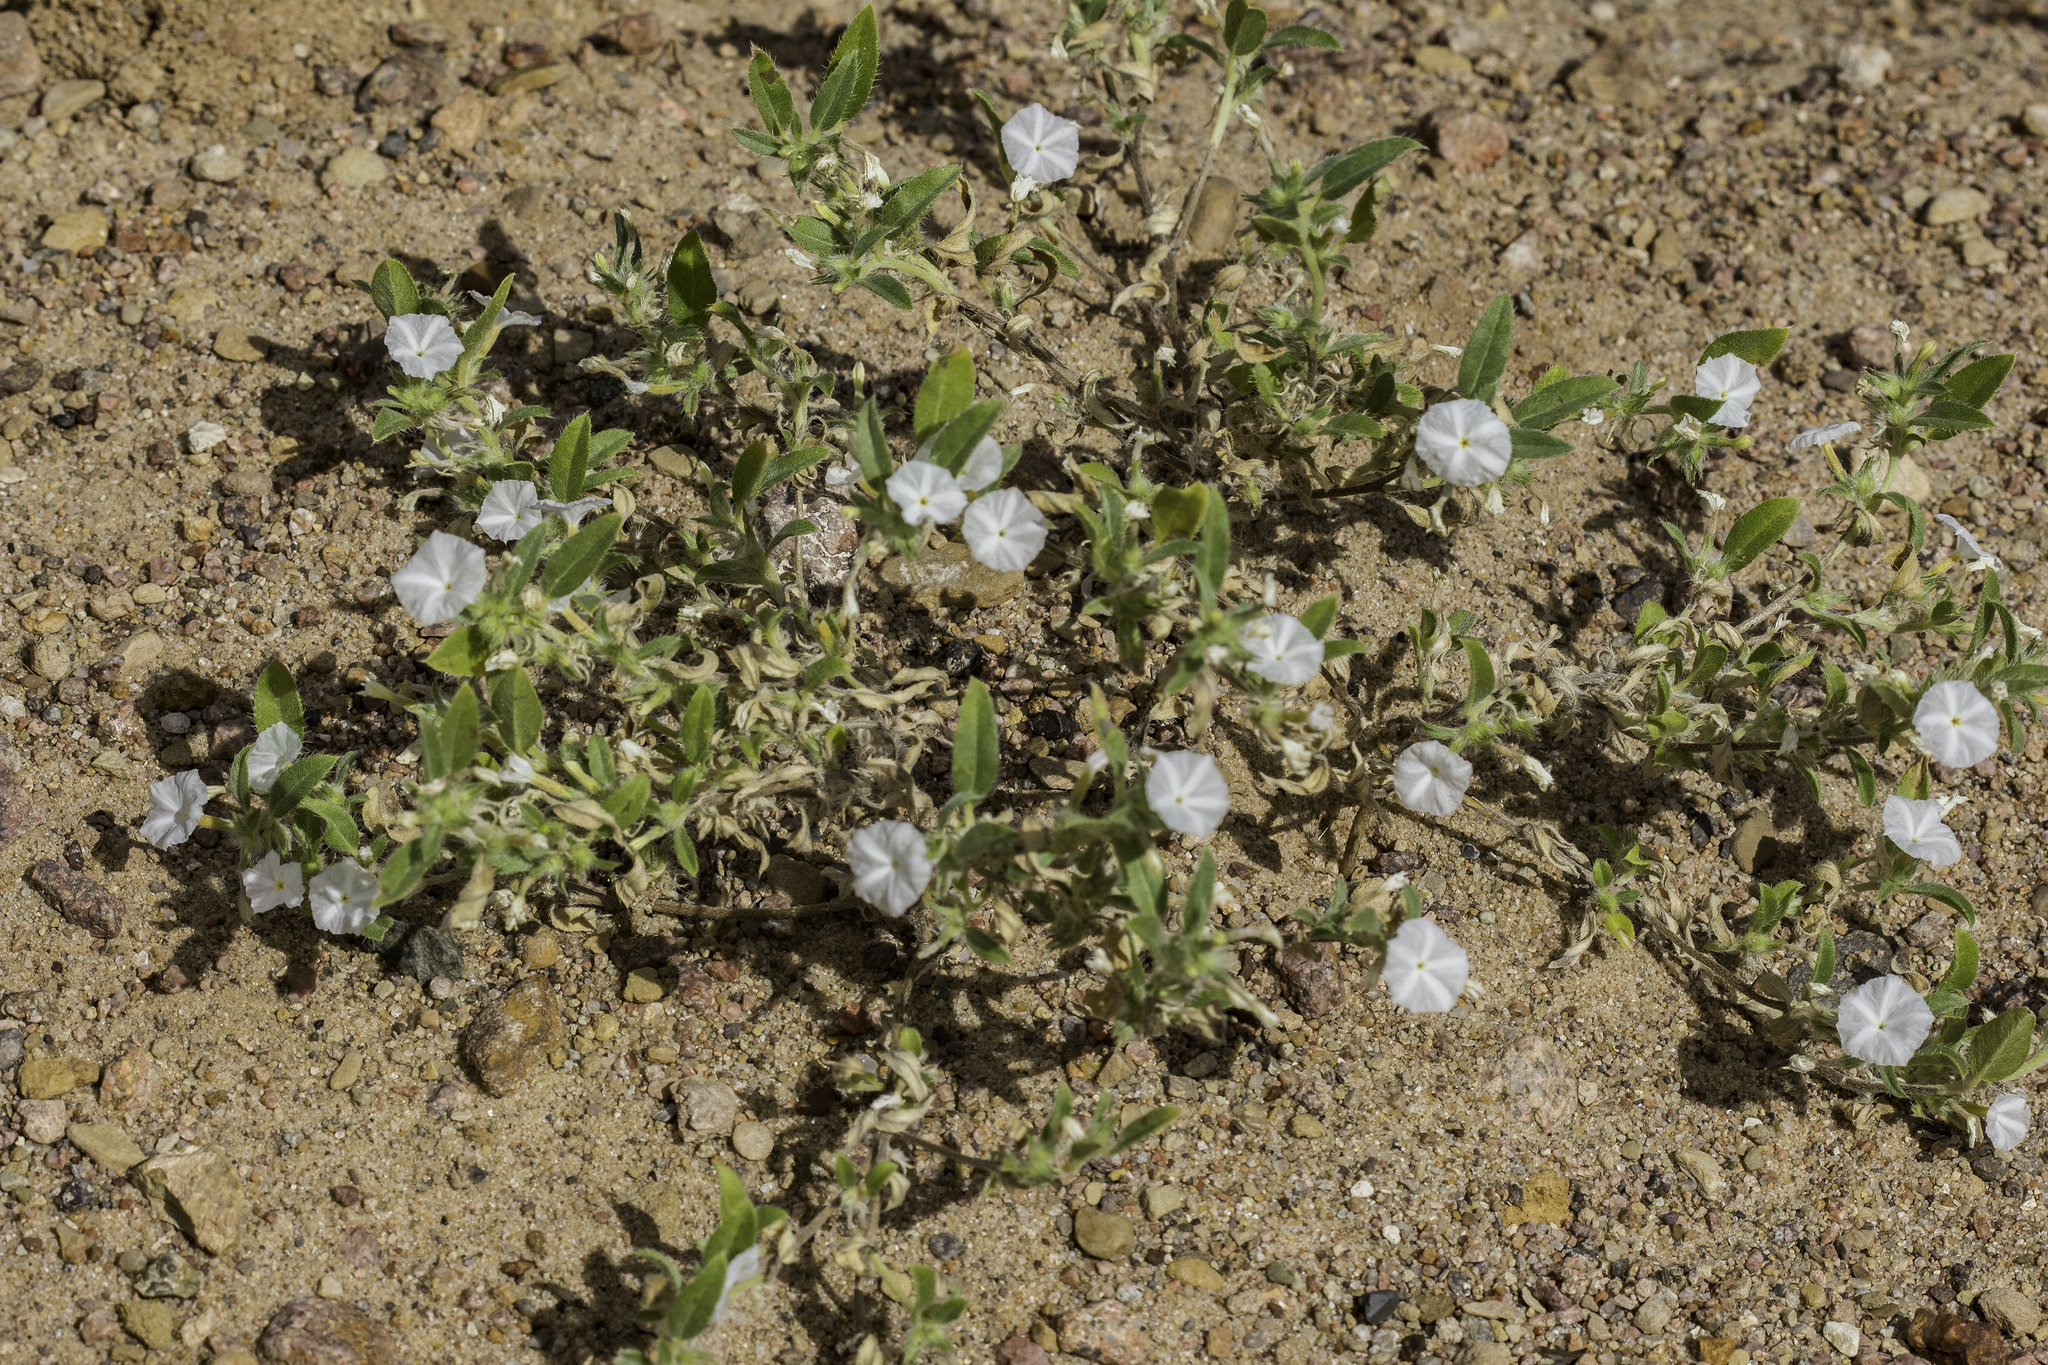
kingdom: Plantae
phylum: Tracheophyta
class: Magnoliopsida
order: Boraginales
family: Heliotropiaceae
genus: Euploca
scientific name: Euploca convolvulacea
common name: Bindweed heliotrope
